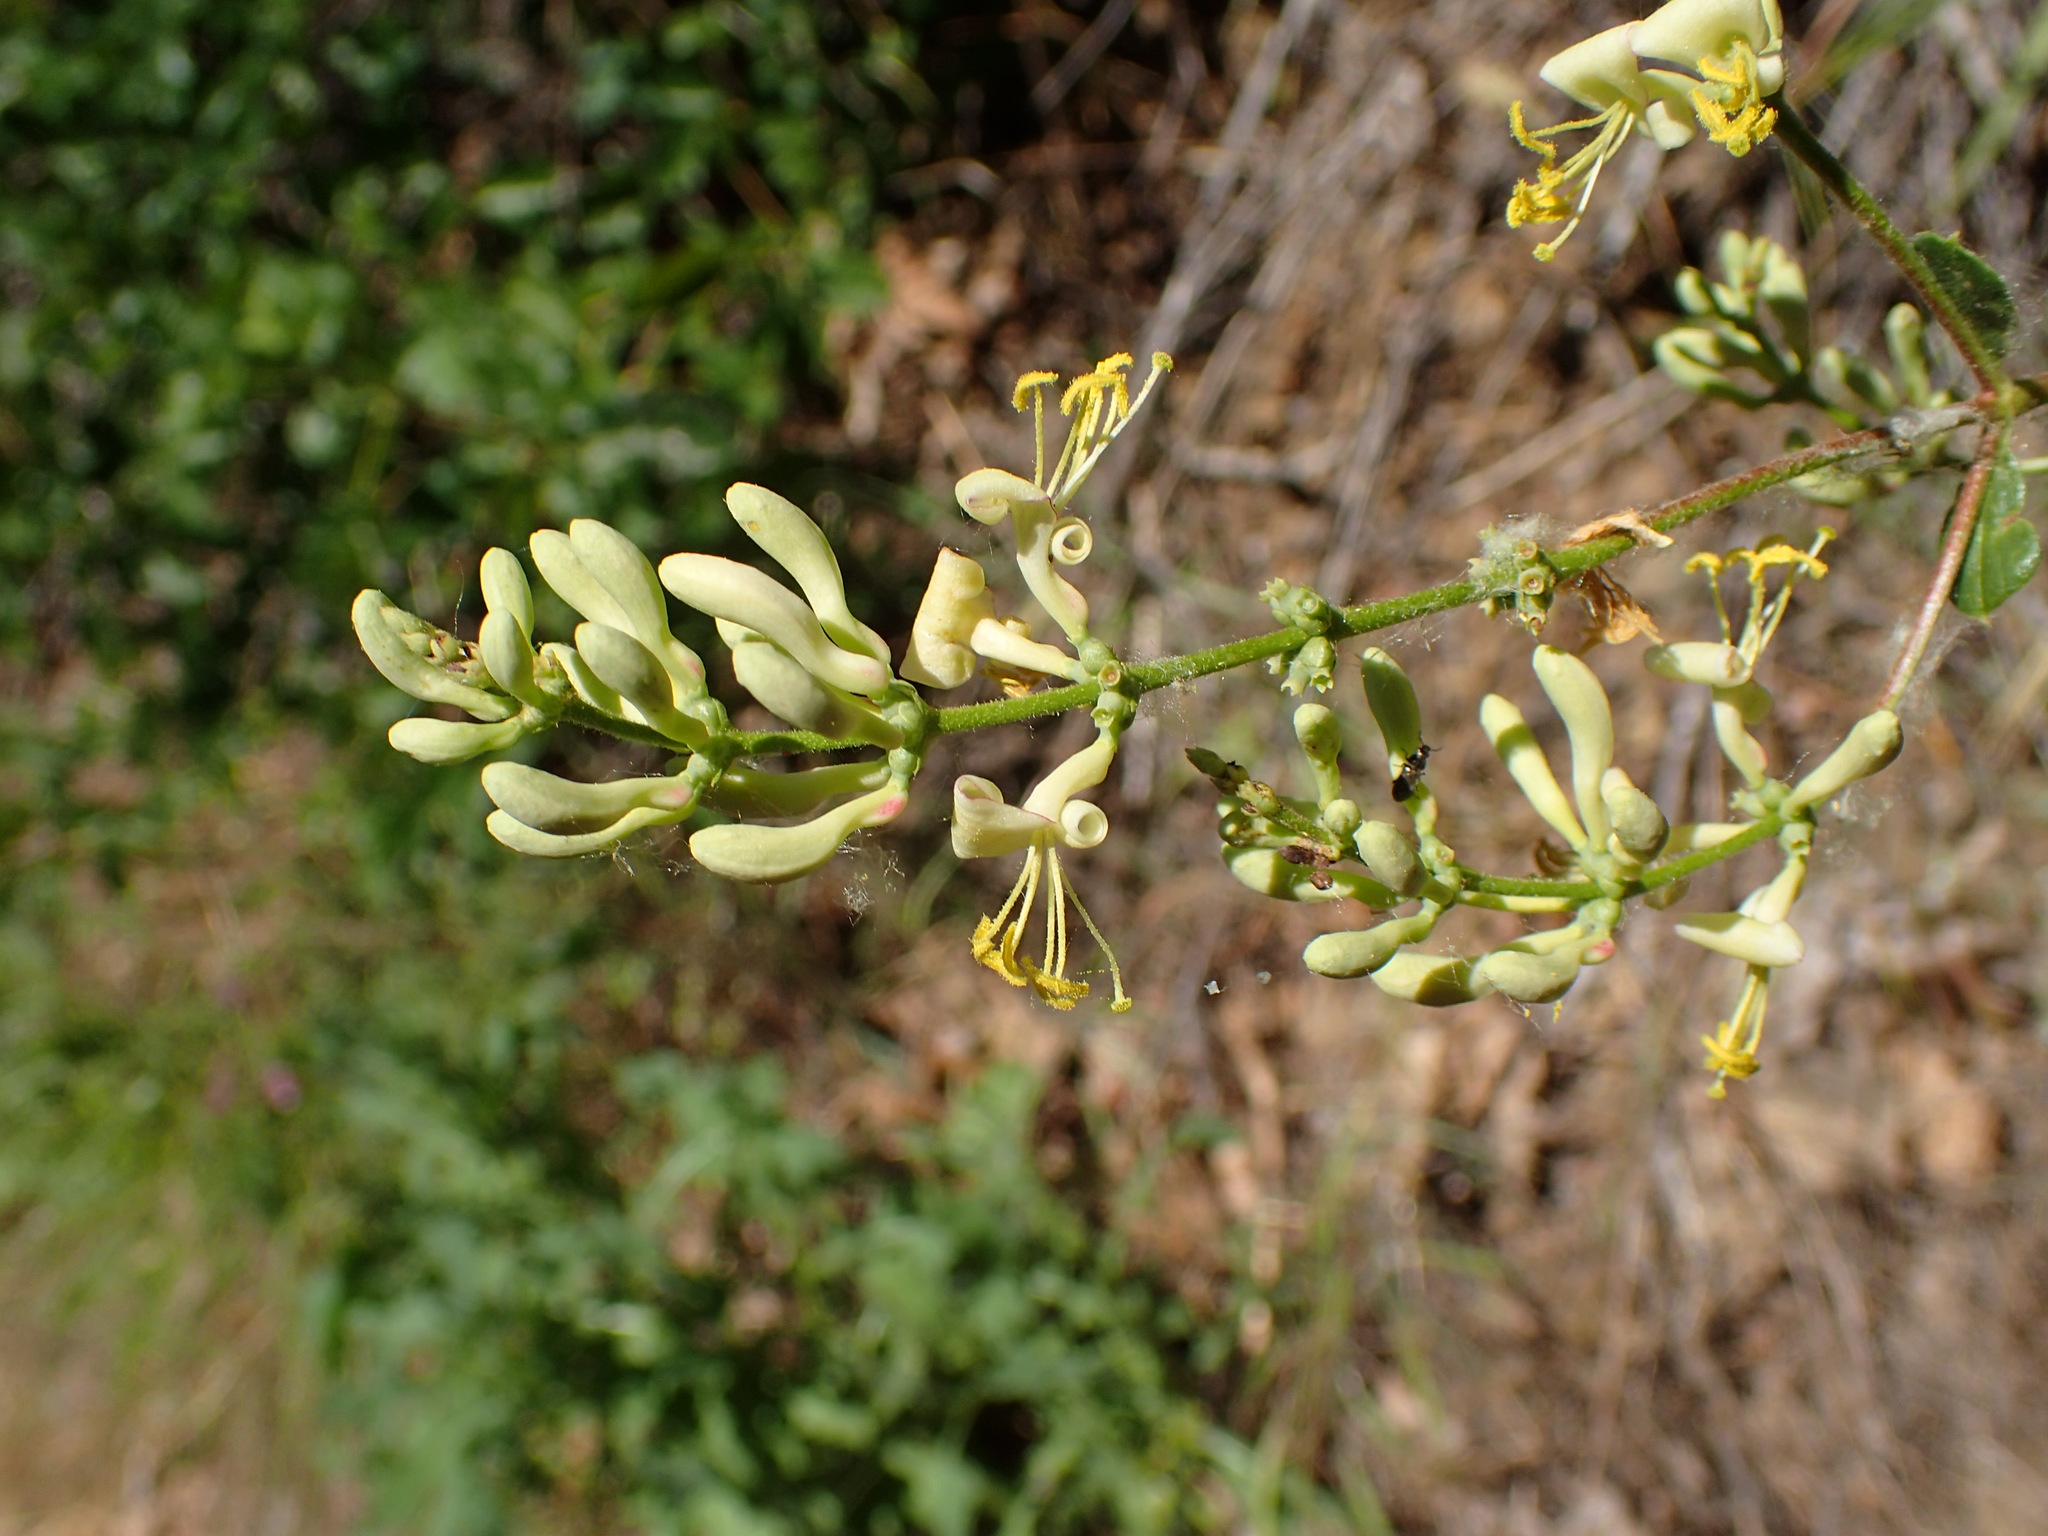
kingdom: Plantae
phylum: Tracheophyta
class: Magnoliopsida
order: Dipsacales
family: Caprifoliaceae
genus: Lonicera
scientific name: Lonicera subspicata
